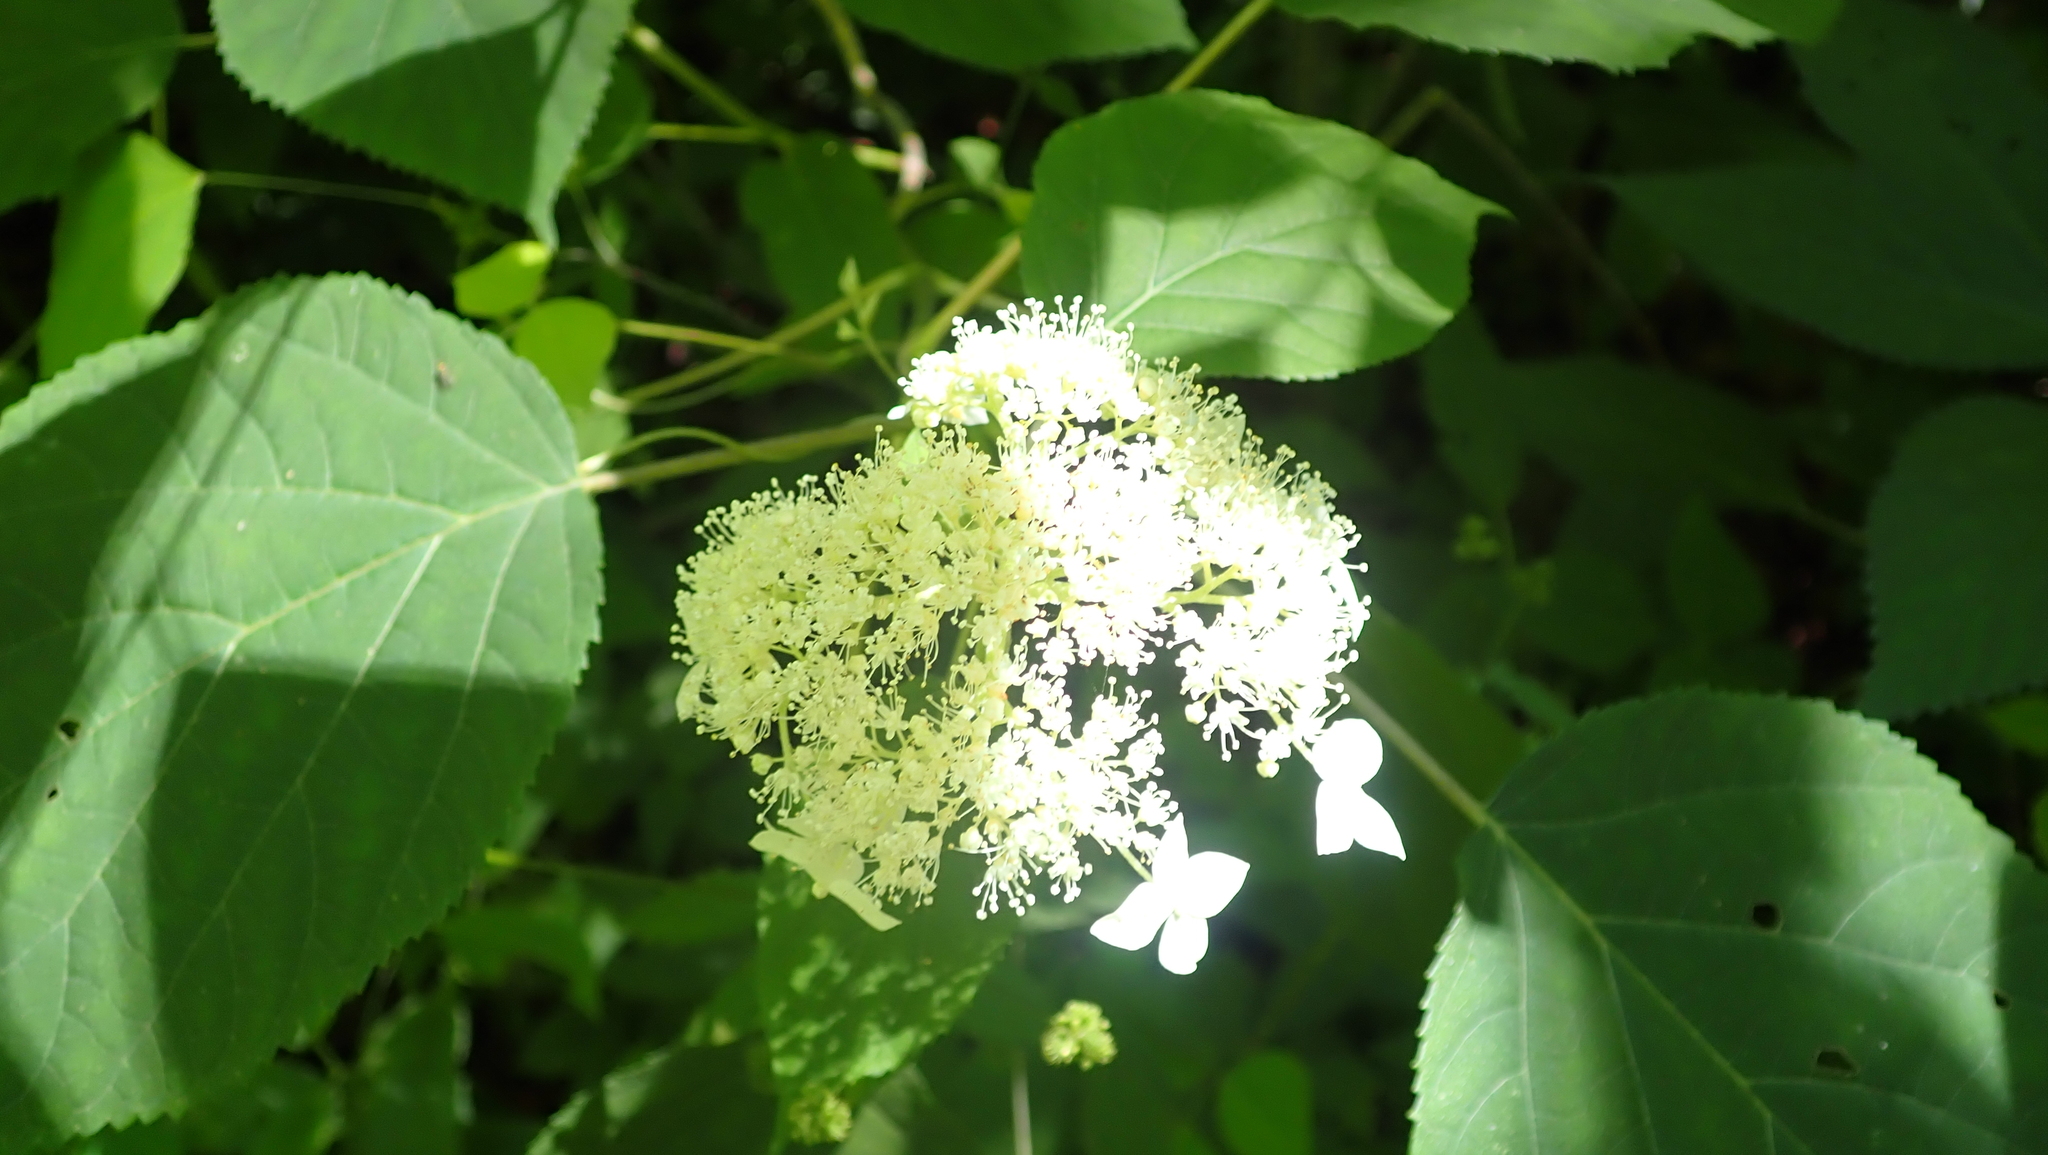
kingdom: Plantae
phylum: Tracheophyta
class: Magnoliopsida
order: Cornales
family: Hydrangeaceae
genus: Hydrangea
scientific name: Hydrangea arborescens
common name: Sevenbark
